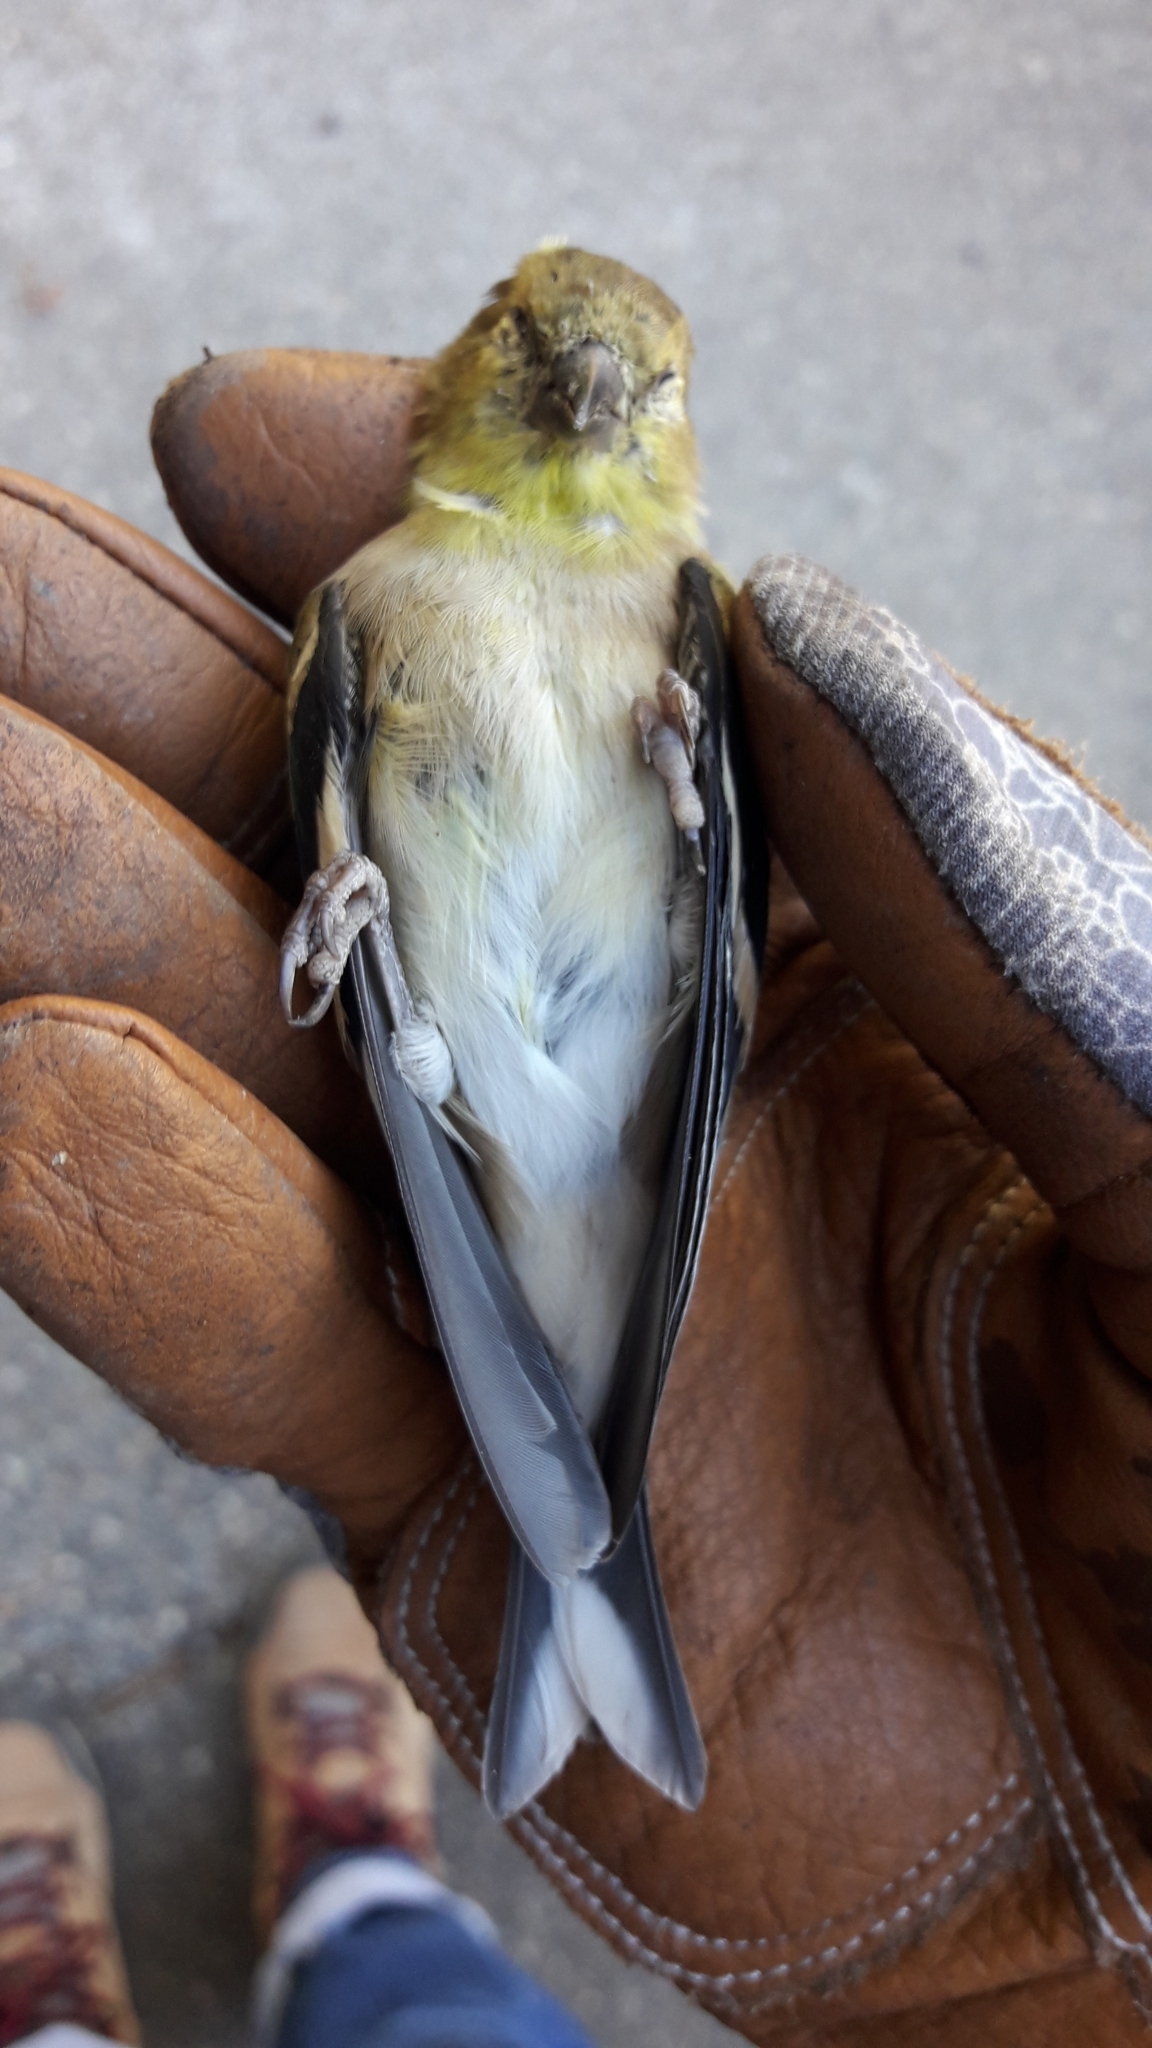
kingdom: Animalia
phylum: Chordata
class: Aves
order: Passeriformes
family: Fringillidae
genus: Spinus
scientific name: Spinus tristis
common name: American goldfinch
